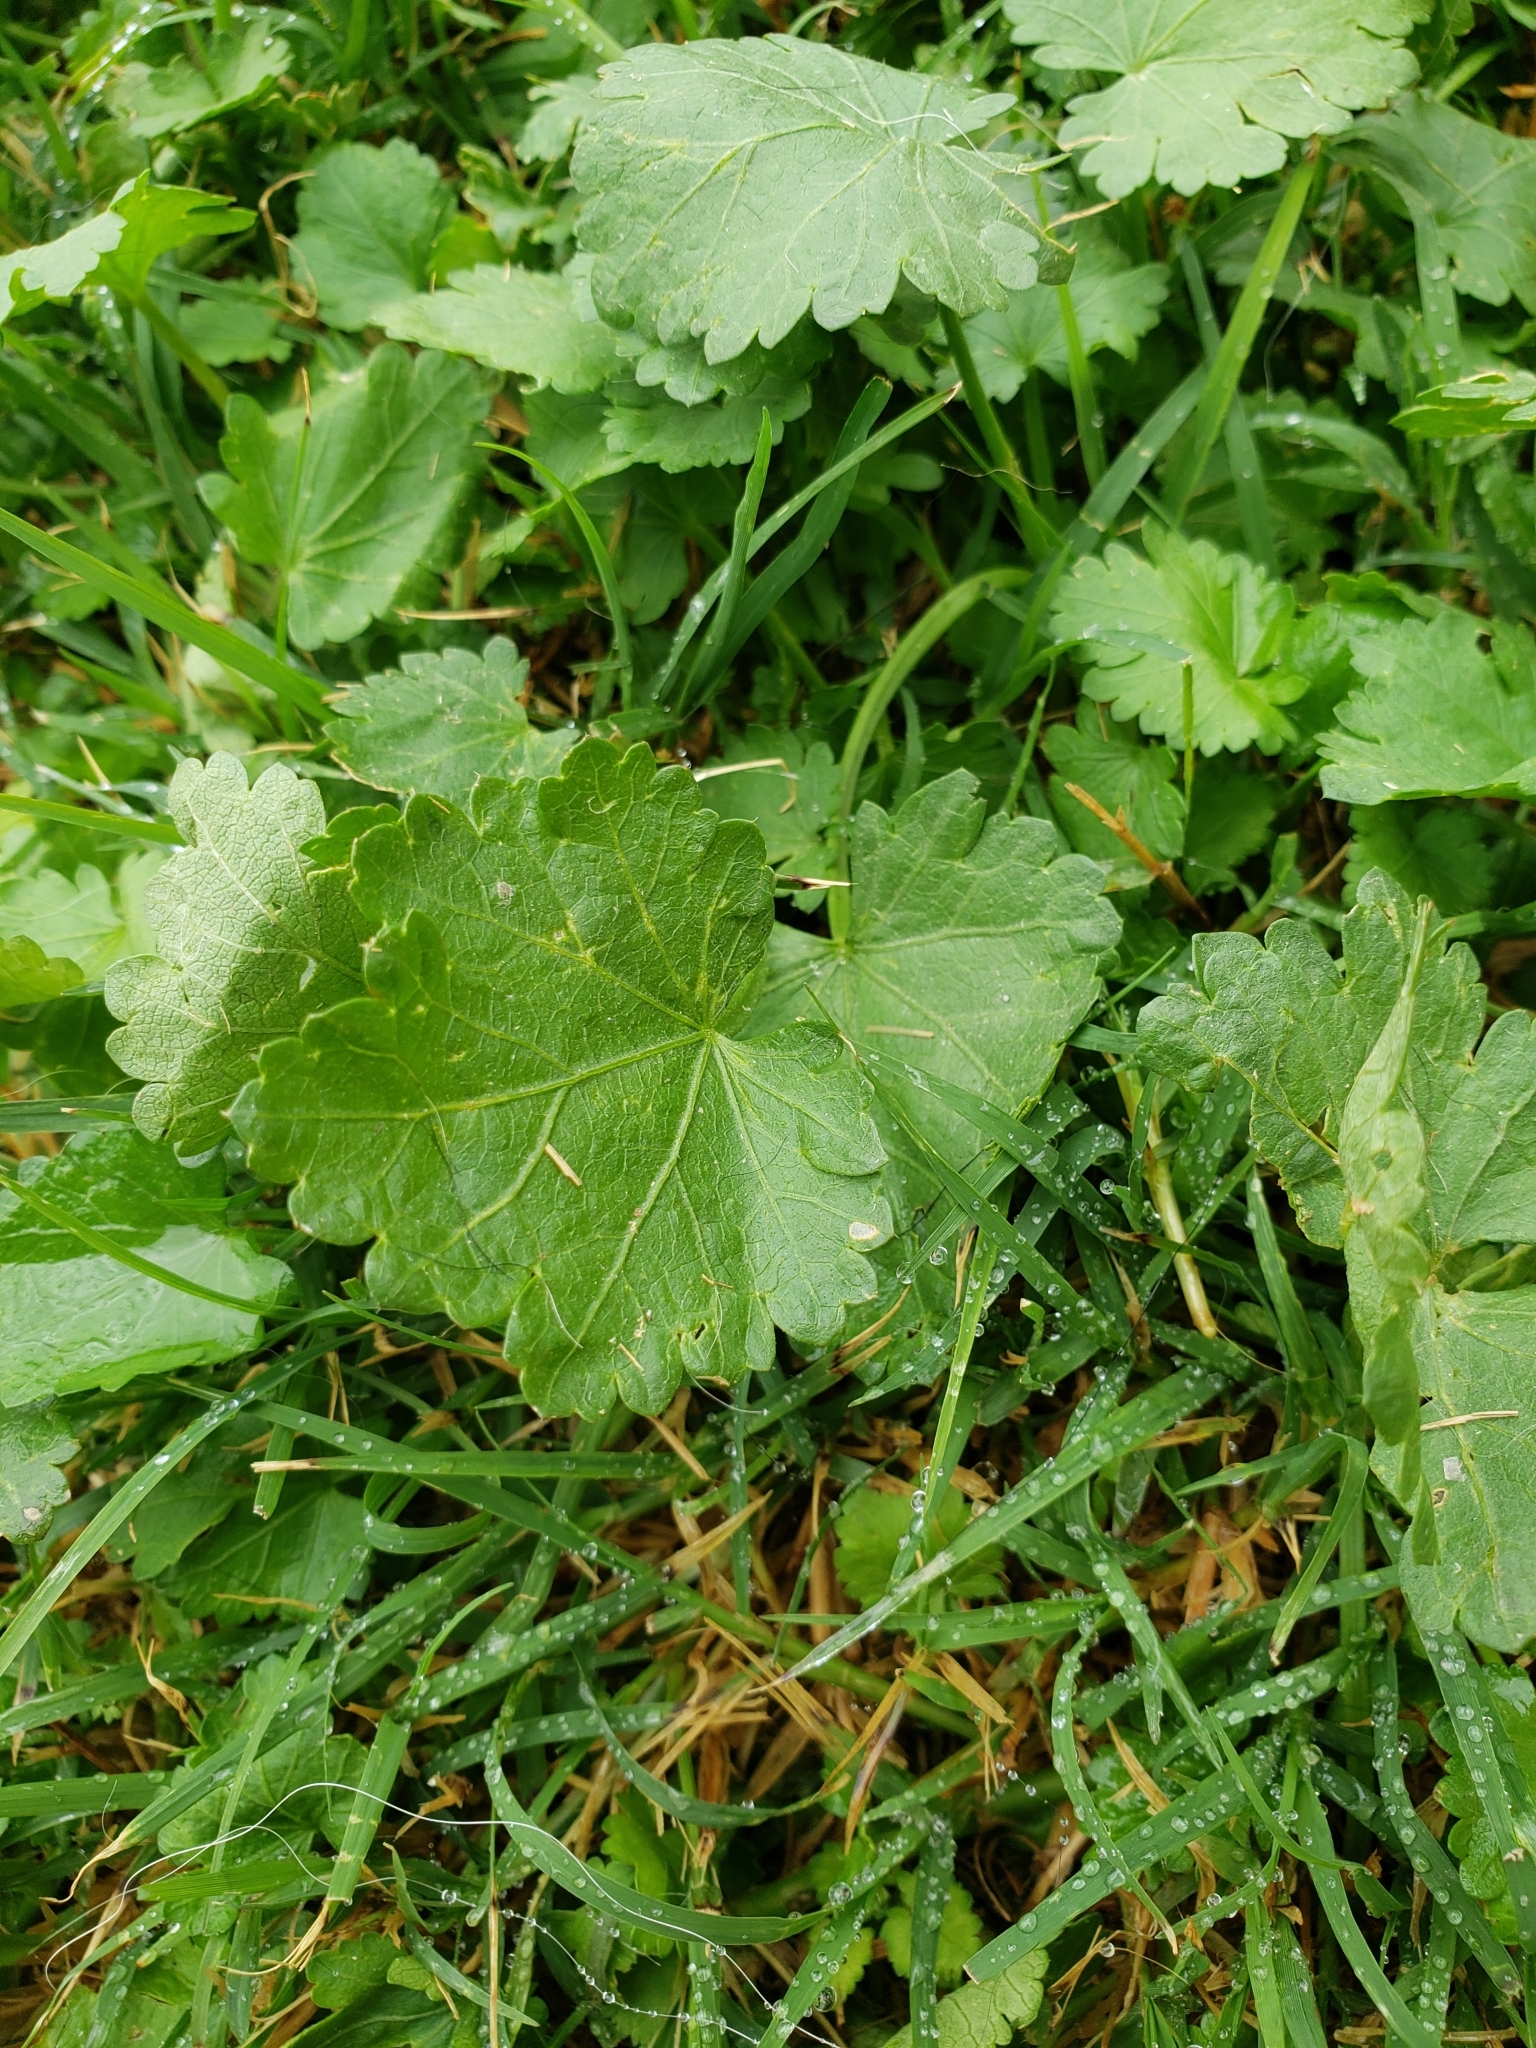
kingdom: Plantae
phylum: Tracheophyta
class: Magnoliopsida
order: Malvales
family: Malvaceae
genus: Modiola
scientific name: Modiola caroliniana
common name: Carolina bristlemallow
